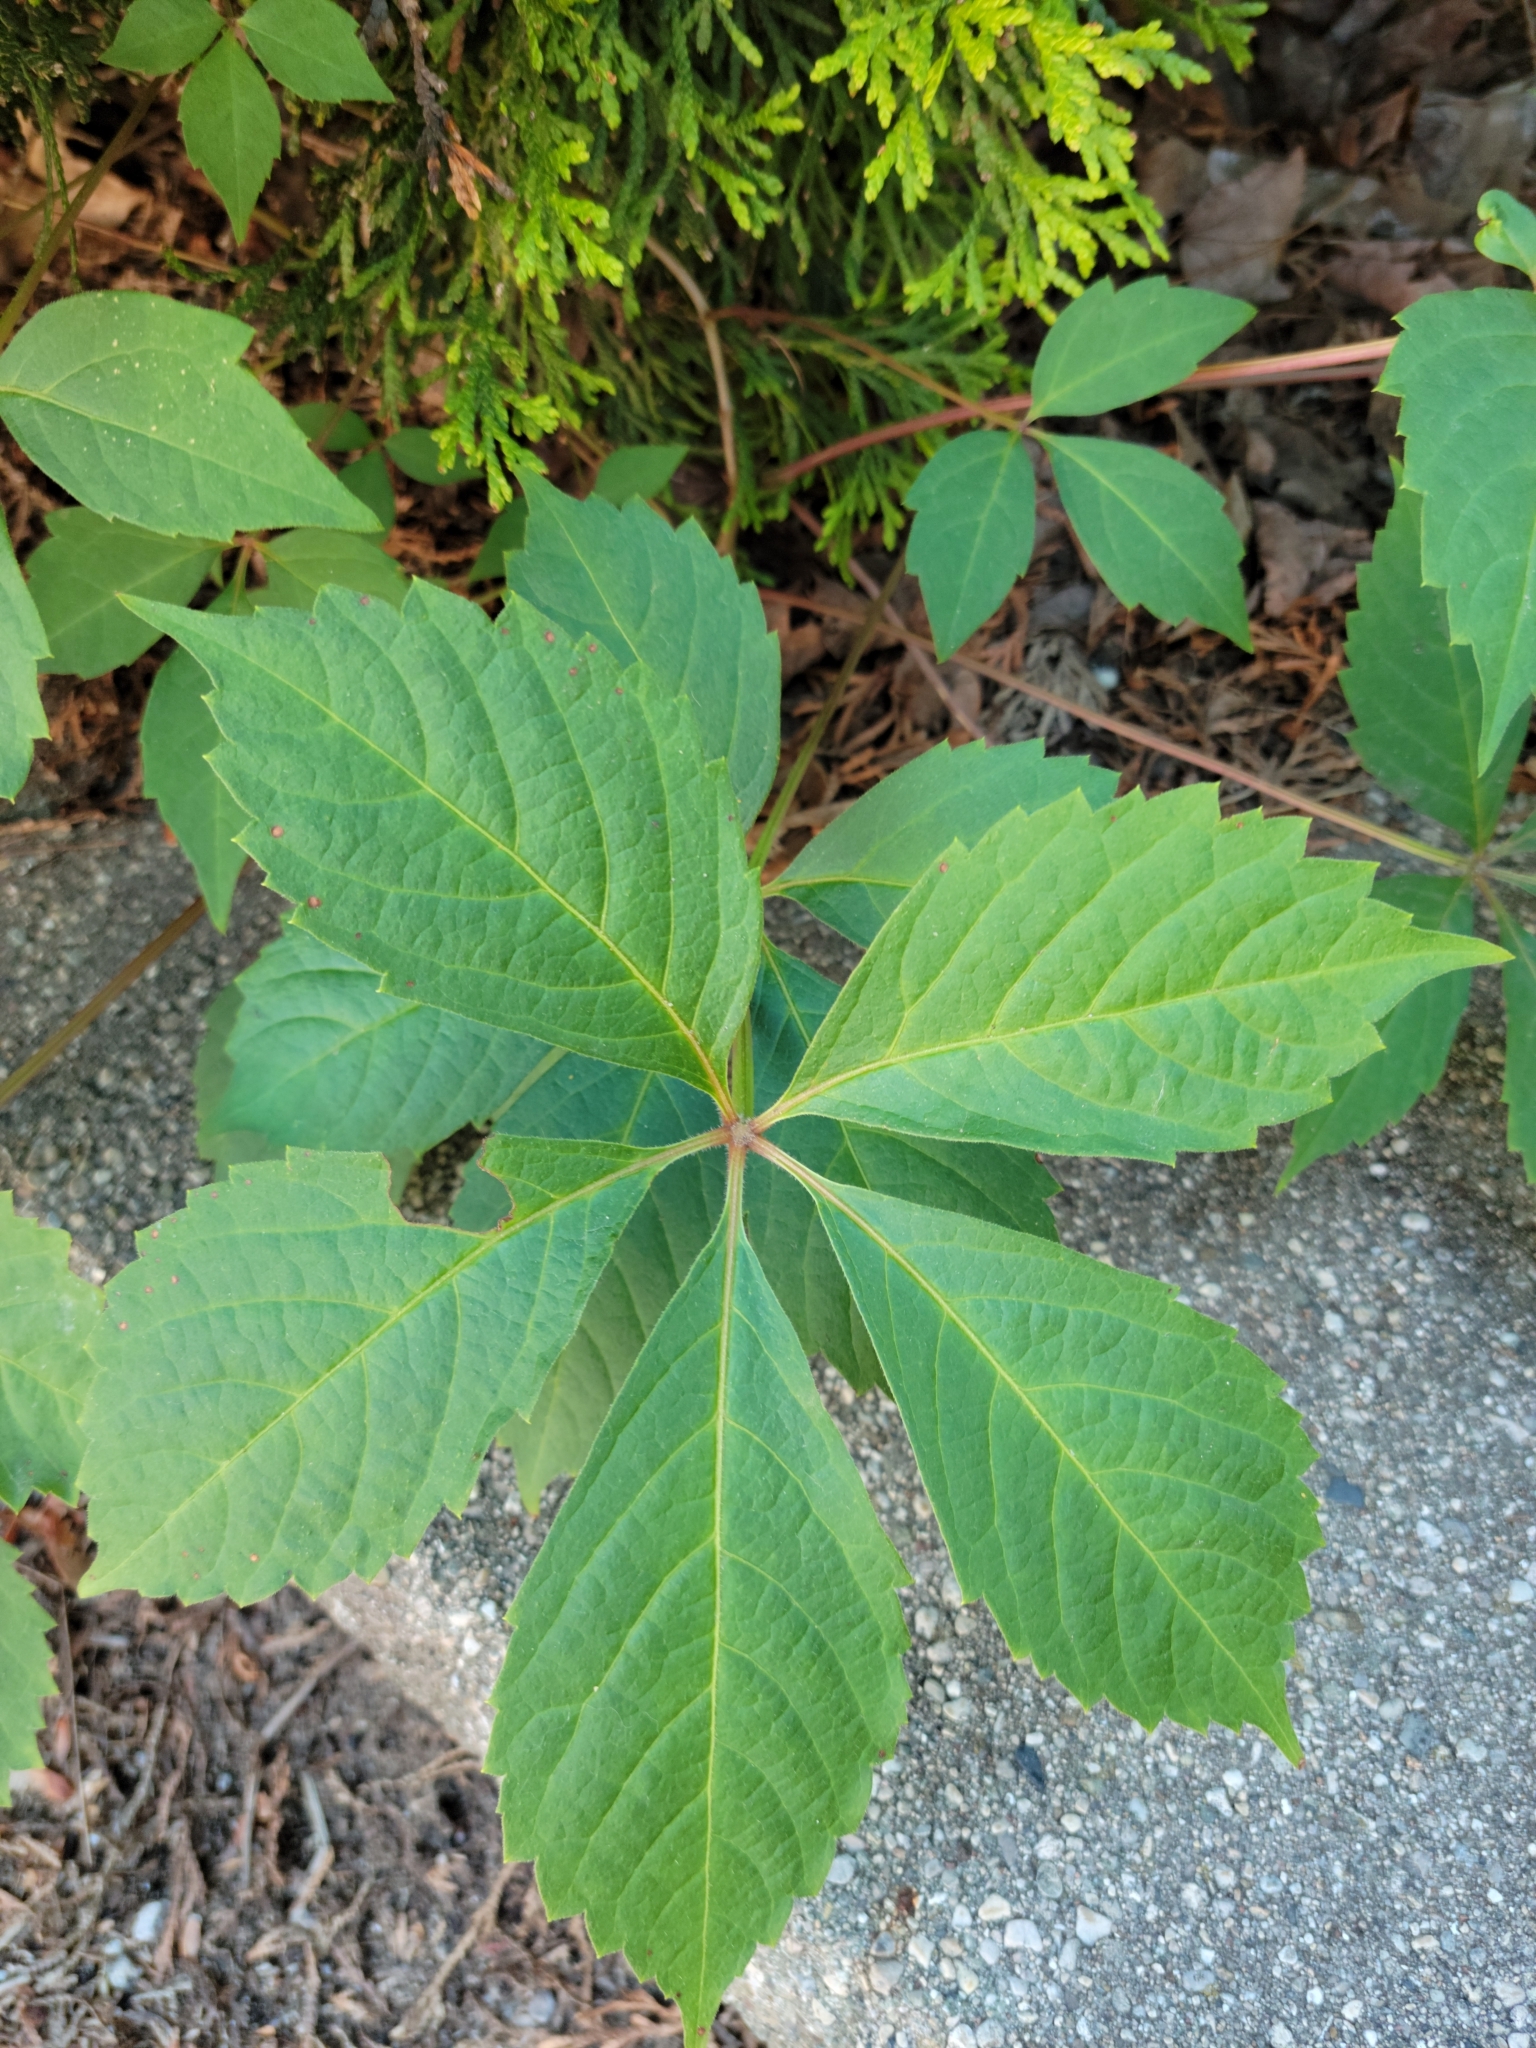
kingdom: Plantae
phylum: Tracheophyta
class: Magnoliopsida
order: Vitales
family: Vitaceae
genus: Parthenocissus
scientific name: Parthenocissus quinquefolia
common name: Virginia-creeper
